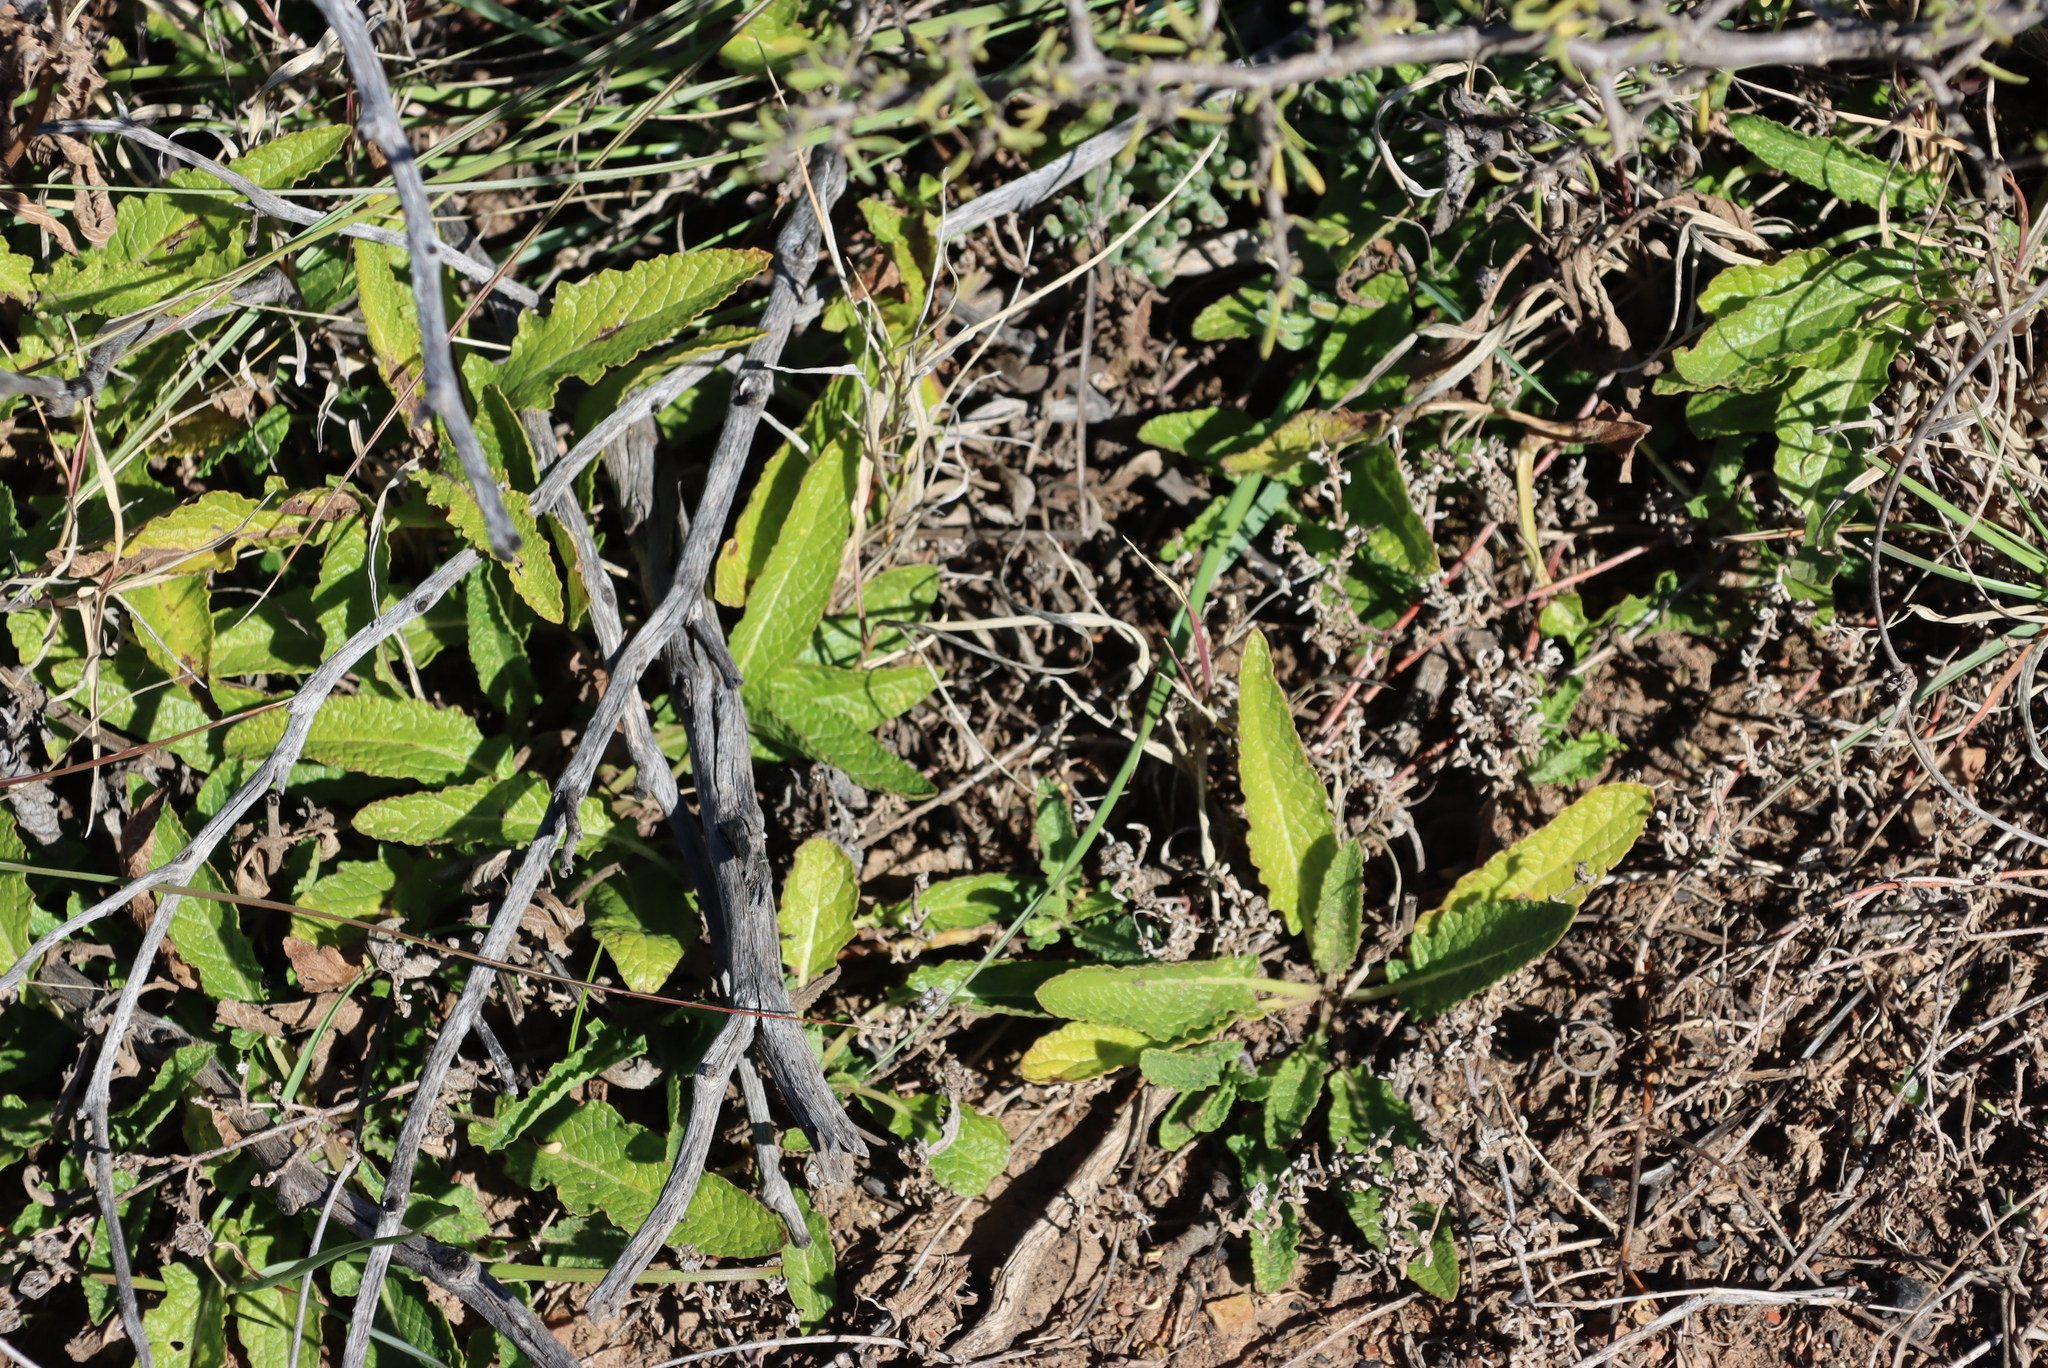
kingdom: Plantae
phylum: Tracheophyta
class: Magnoliopsida
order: Malvales
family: Malvaceae
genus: Hermannia
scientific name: Hermannia saccifera
